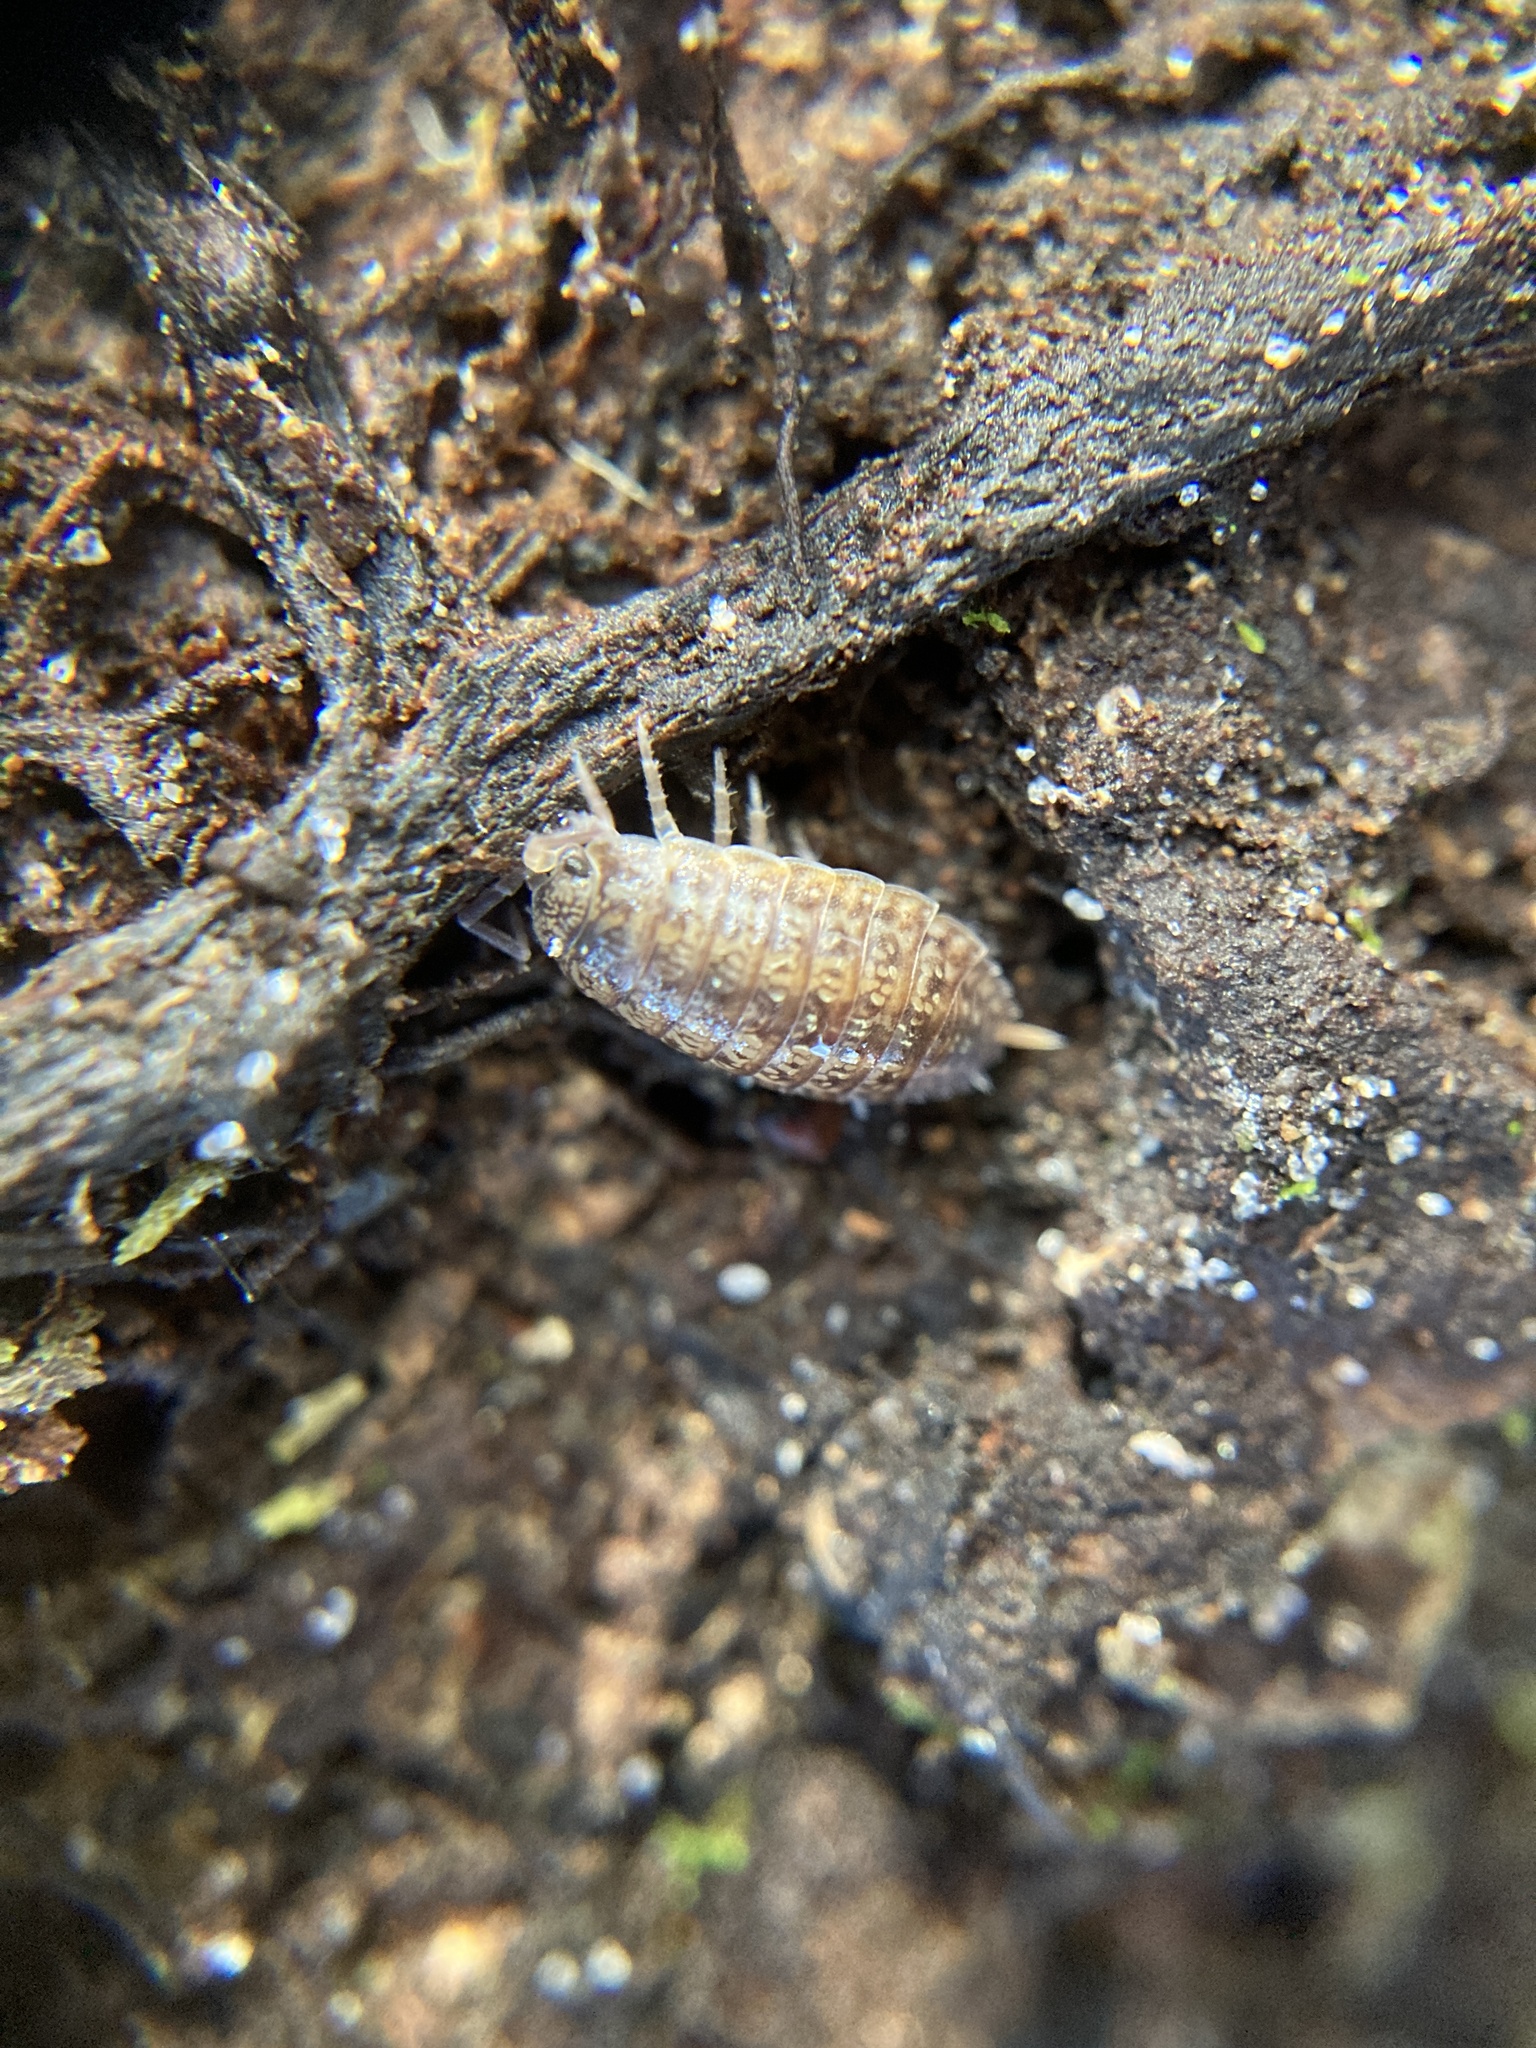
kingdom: Animalia
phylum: Arthropoda
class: Malacostraca
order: Isopoda
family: Porcellionidae
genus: Porcellionides
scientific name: Porcellionides virgatus
